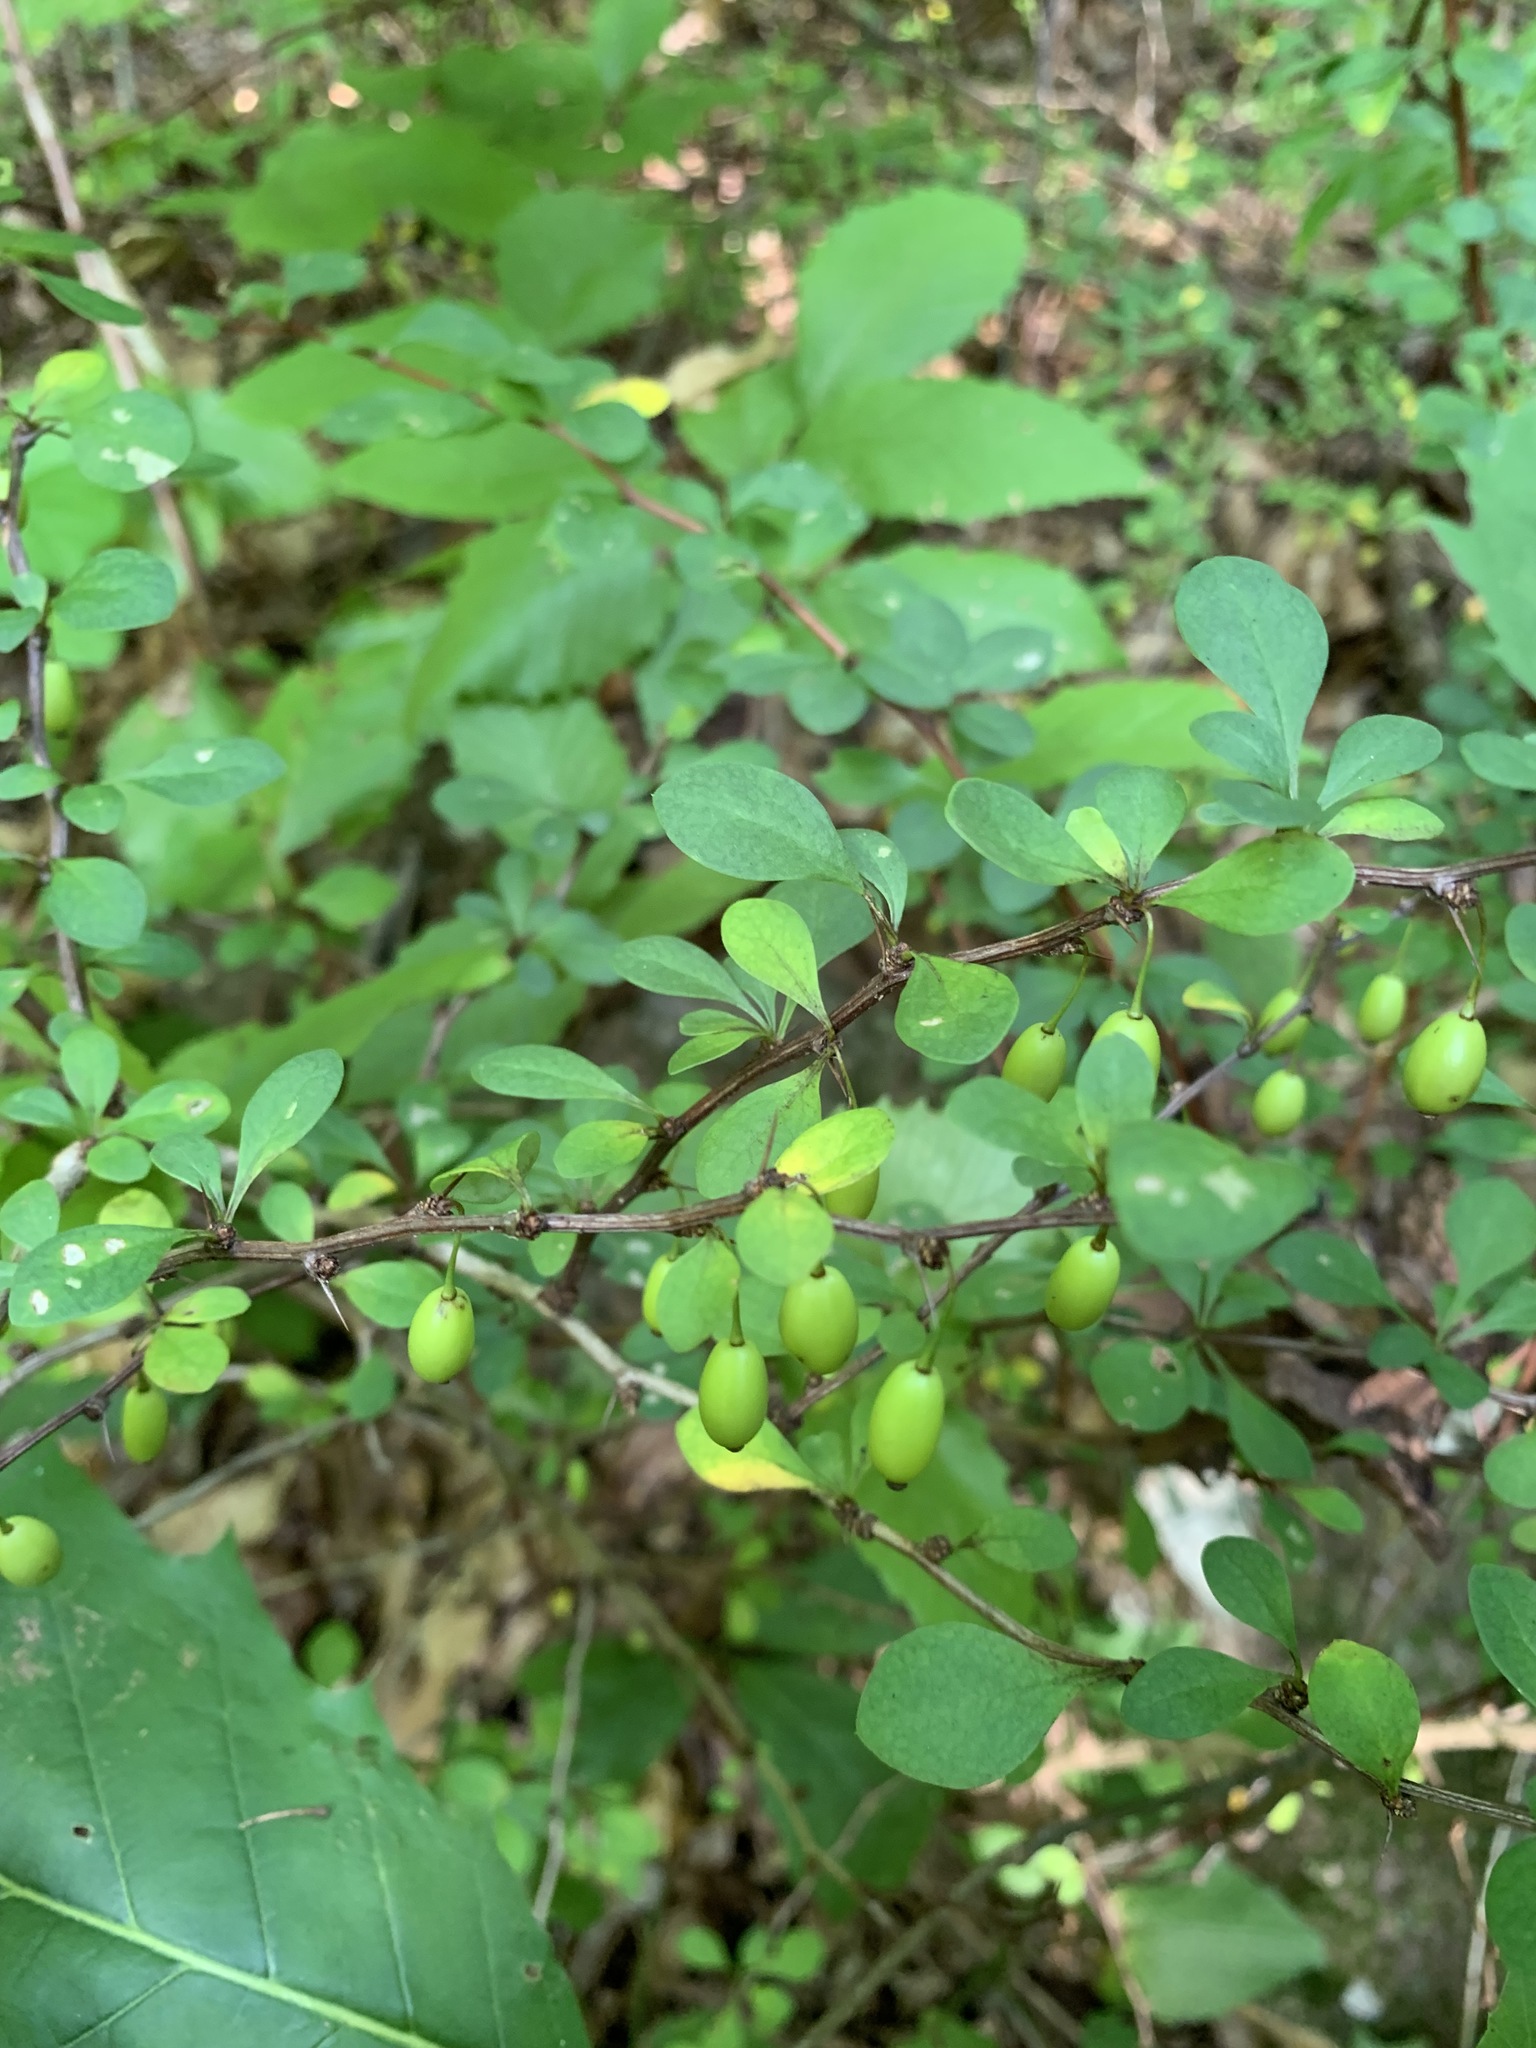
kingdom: Plantae
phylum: Tracheophyta
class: Magnoliopsida
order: Ranunculales
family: Berberidaceae
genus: Berberis
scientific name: Berberis thunbergii
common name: Japanese barberry
